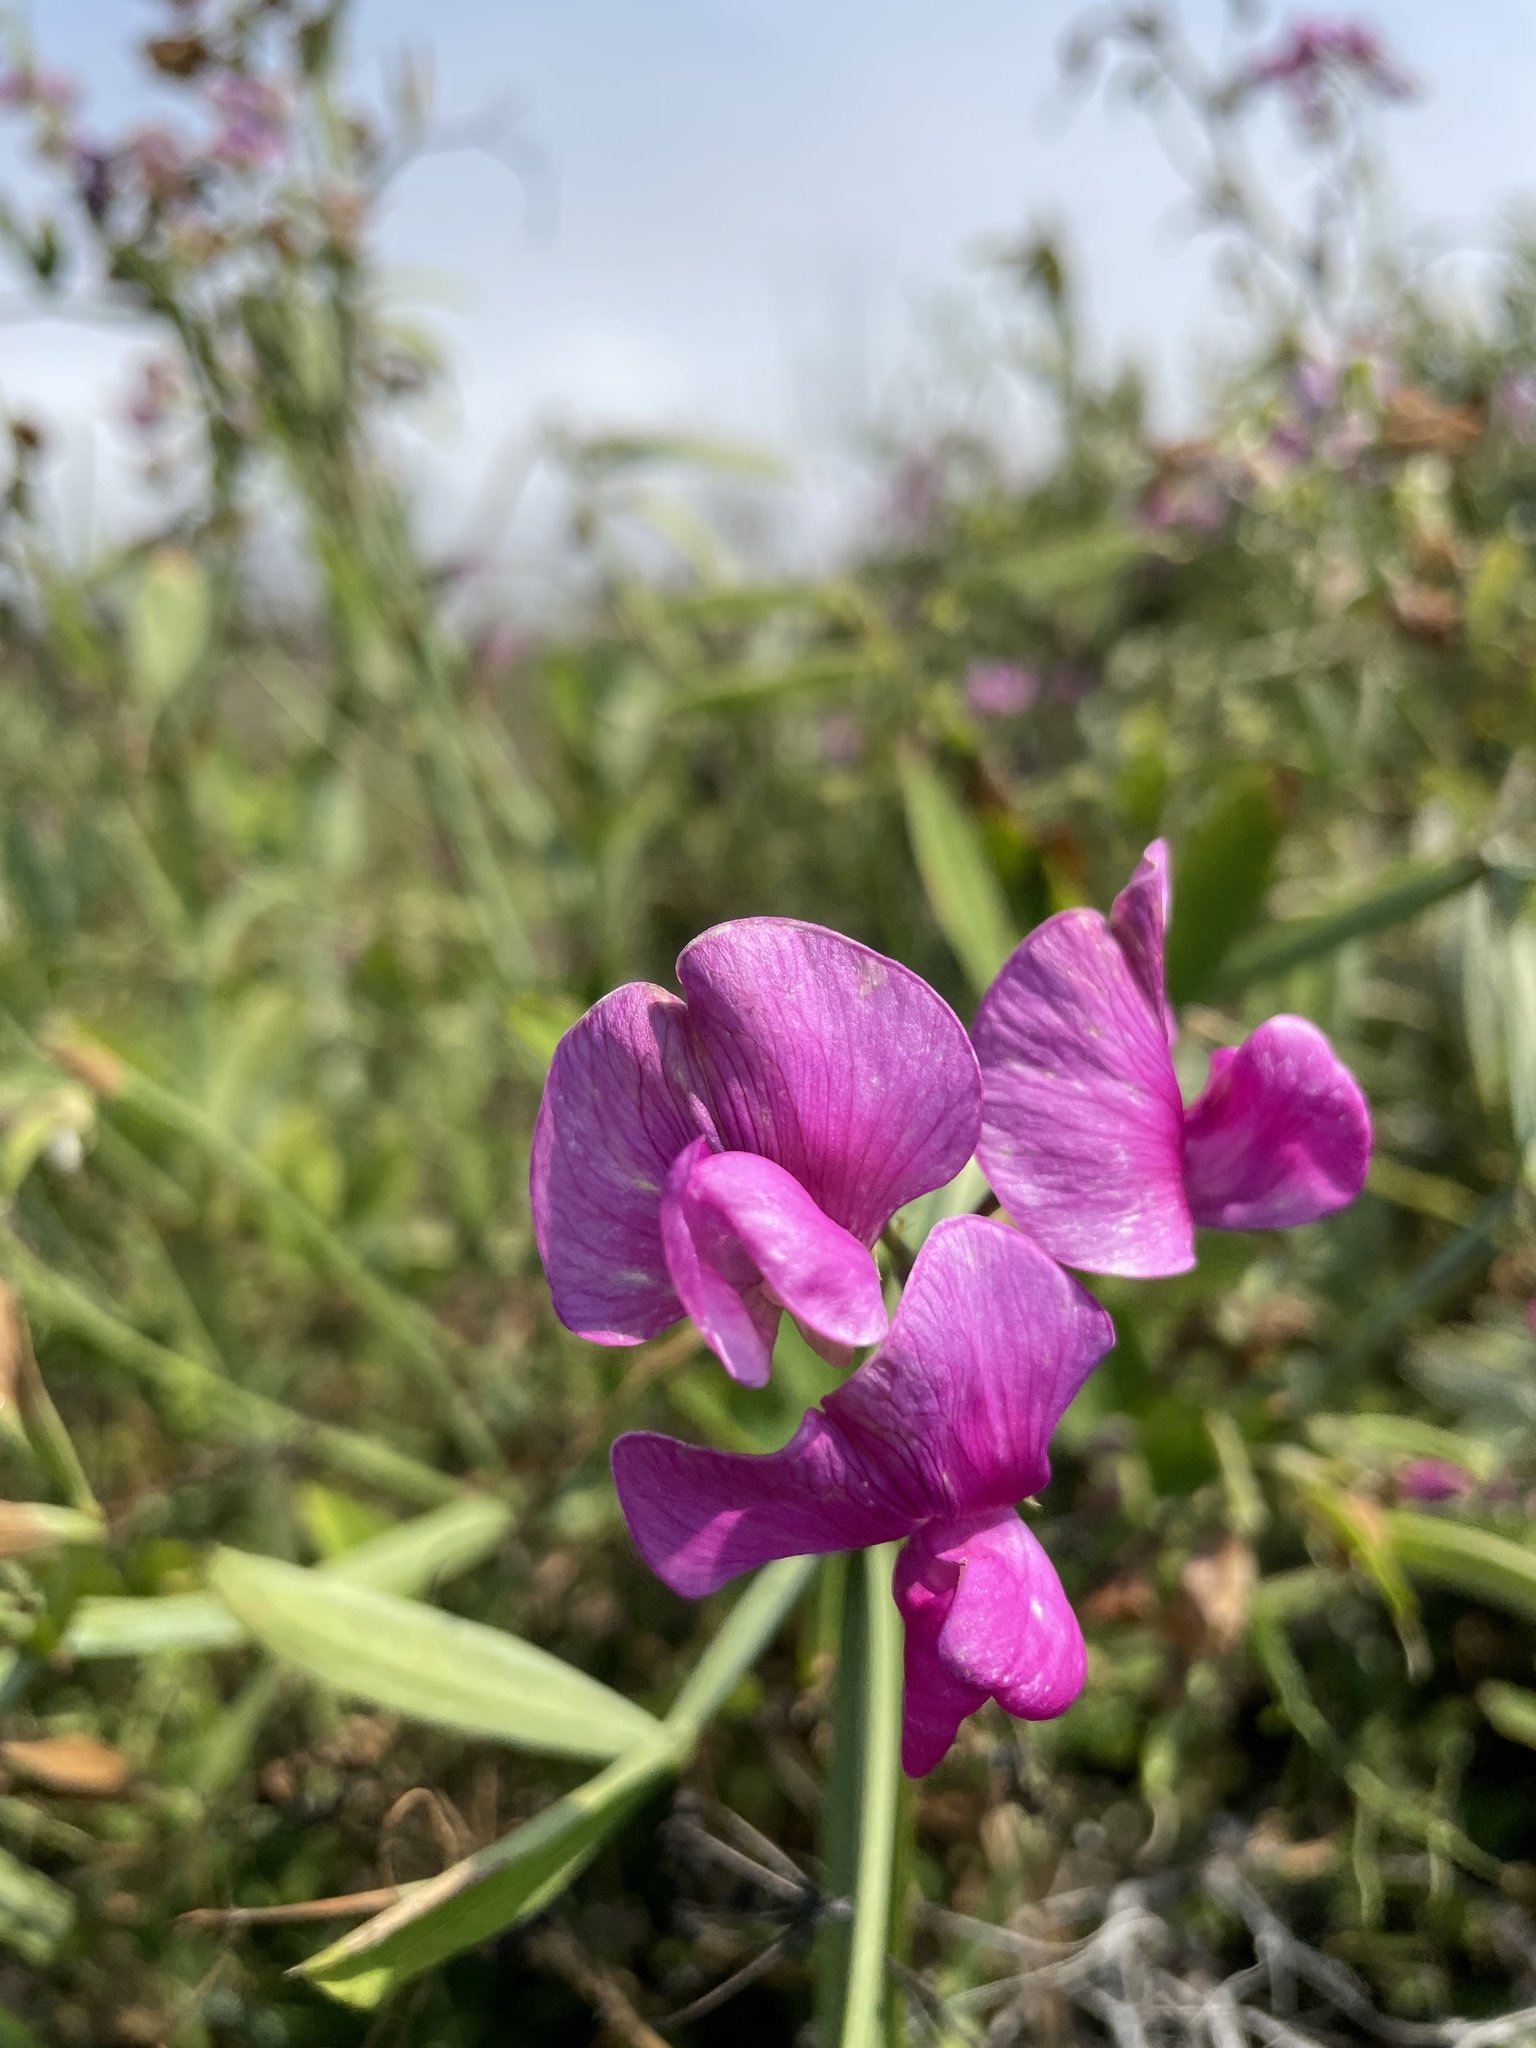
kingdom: Plantae
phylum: Tracheophyta
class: Magnoliopsida
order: Fabales
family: Fabaceae
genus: Lathyrus
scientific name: Lathyrus latifolius
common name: Perennial pea
